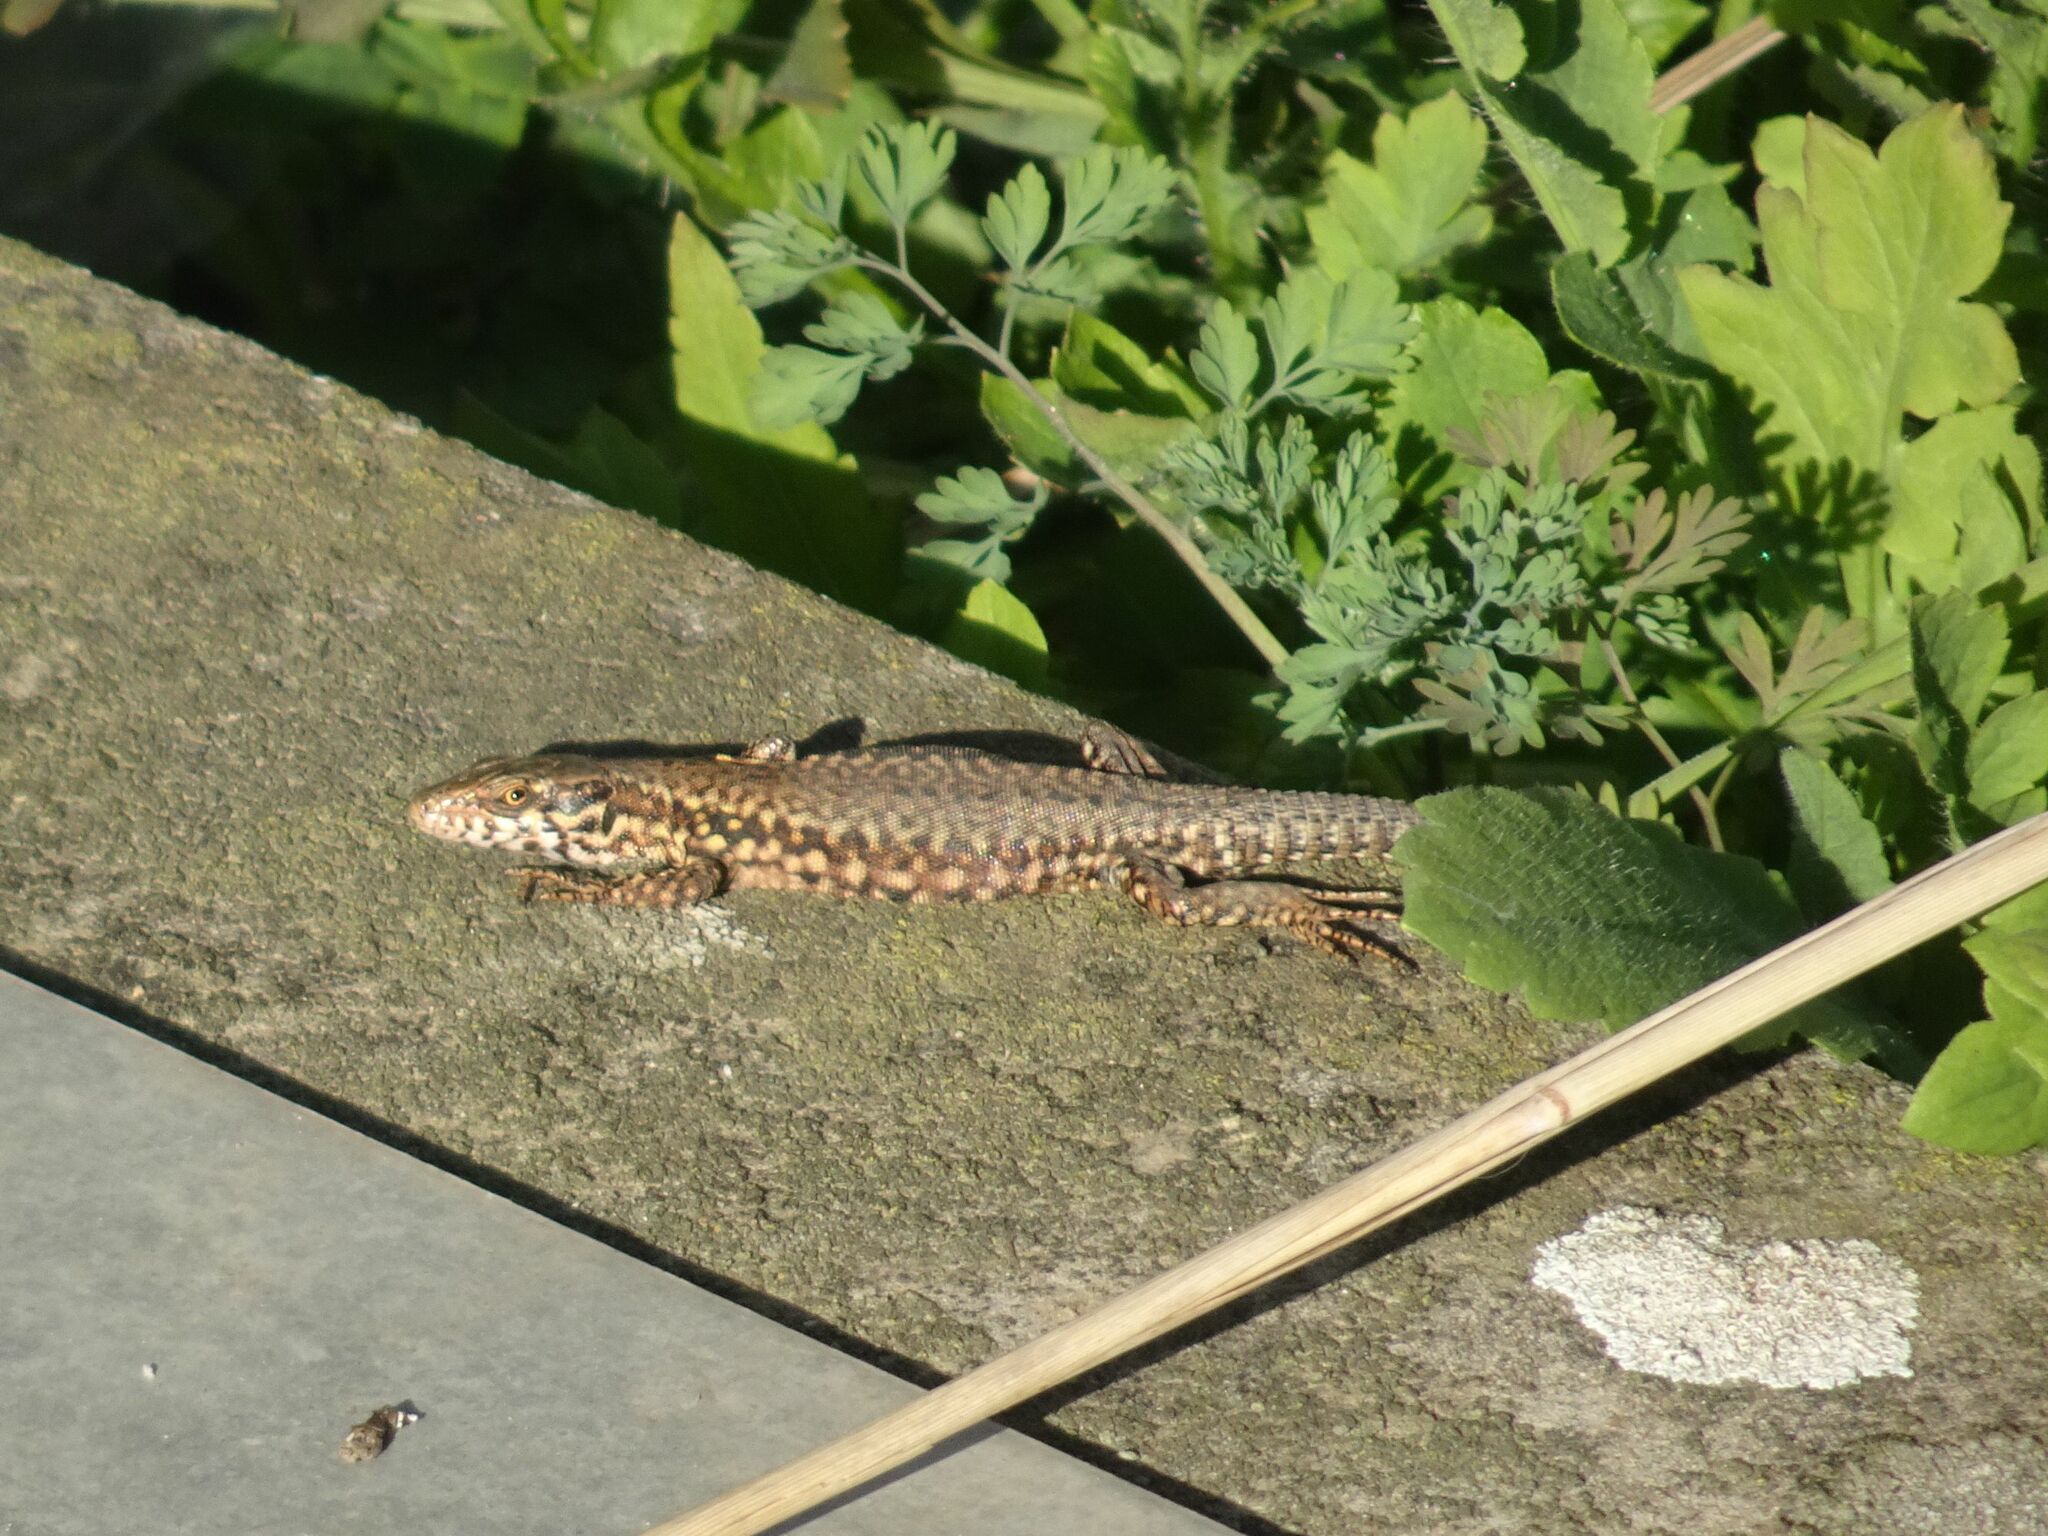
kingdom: Animalia
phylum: Chordata
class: Squamata
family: Lacertidae
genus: Podarcis
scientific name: Podarcis muralis
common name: Common wall lizard
